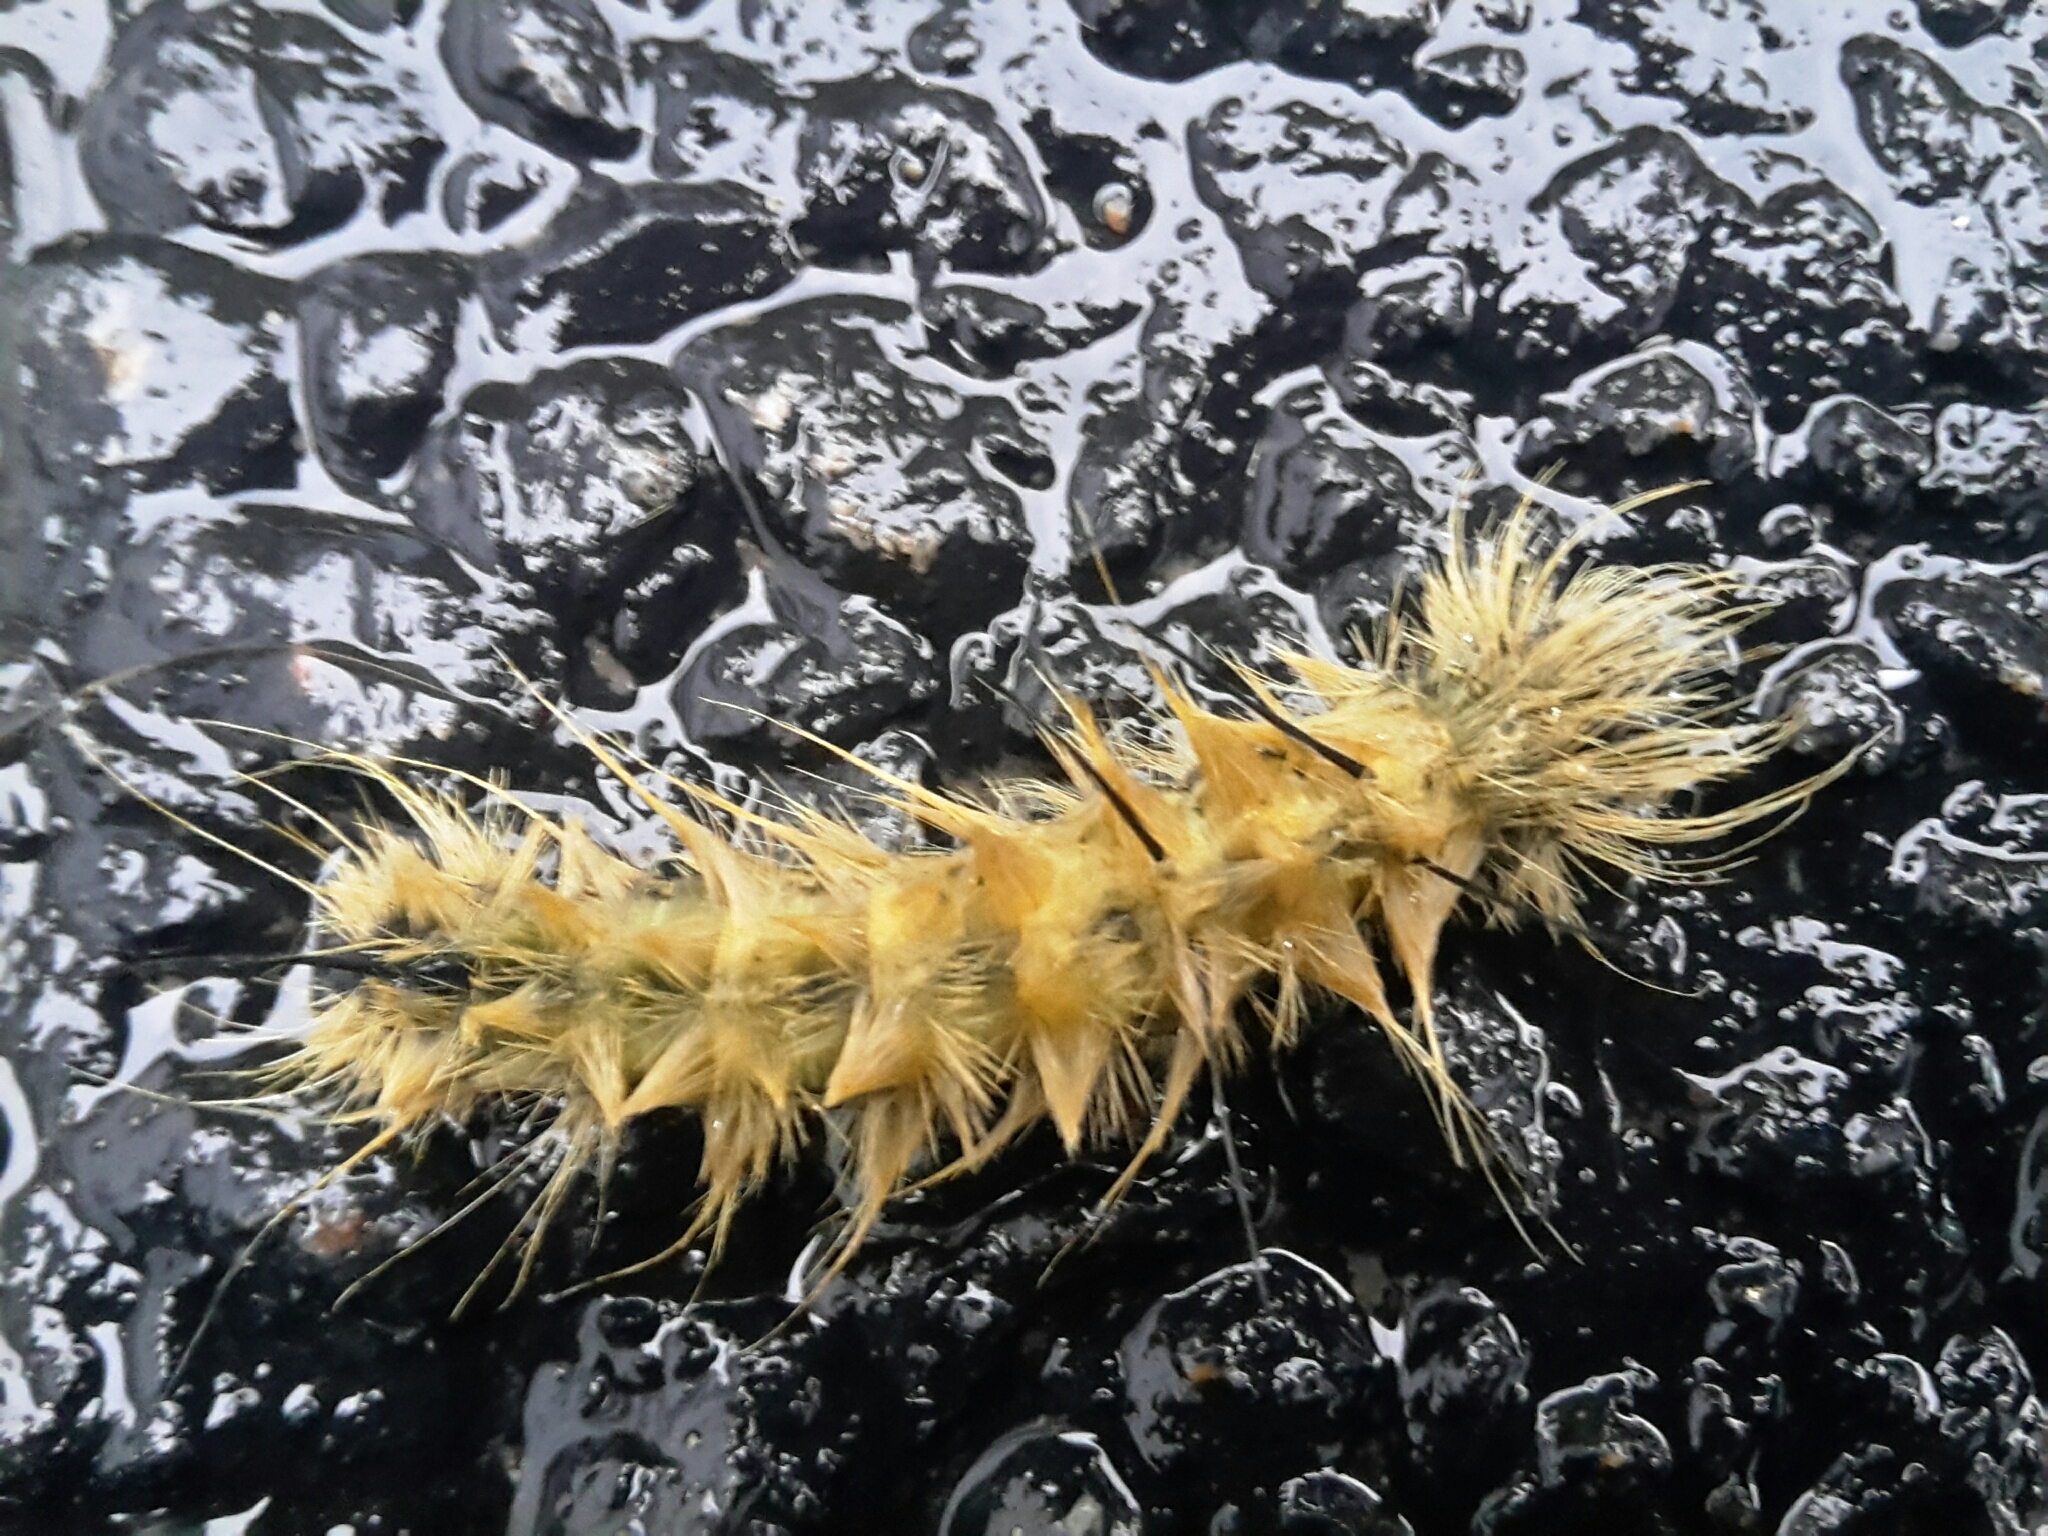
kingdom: Animalia
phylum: Arthropoda
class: Insecta
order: Lepidoptera
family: Noctuidae
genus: Acronicta
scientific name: Acronicta americana
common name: American dagger
